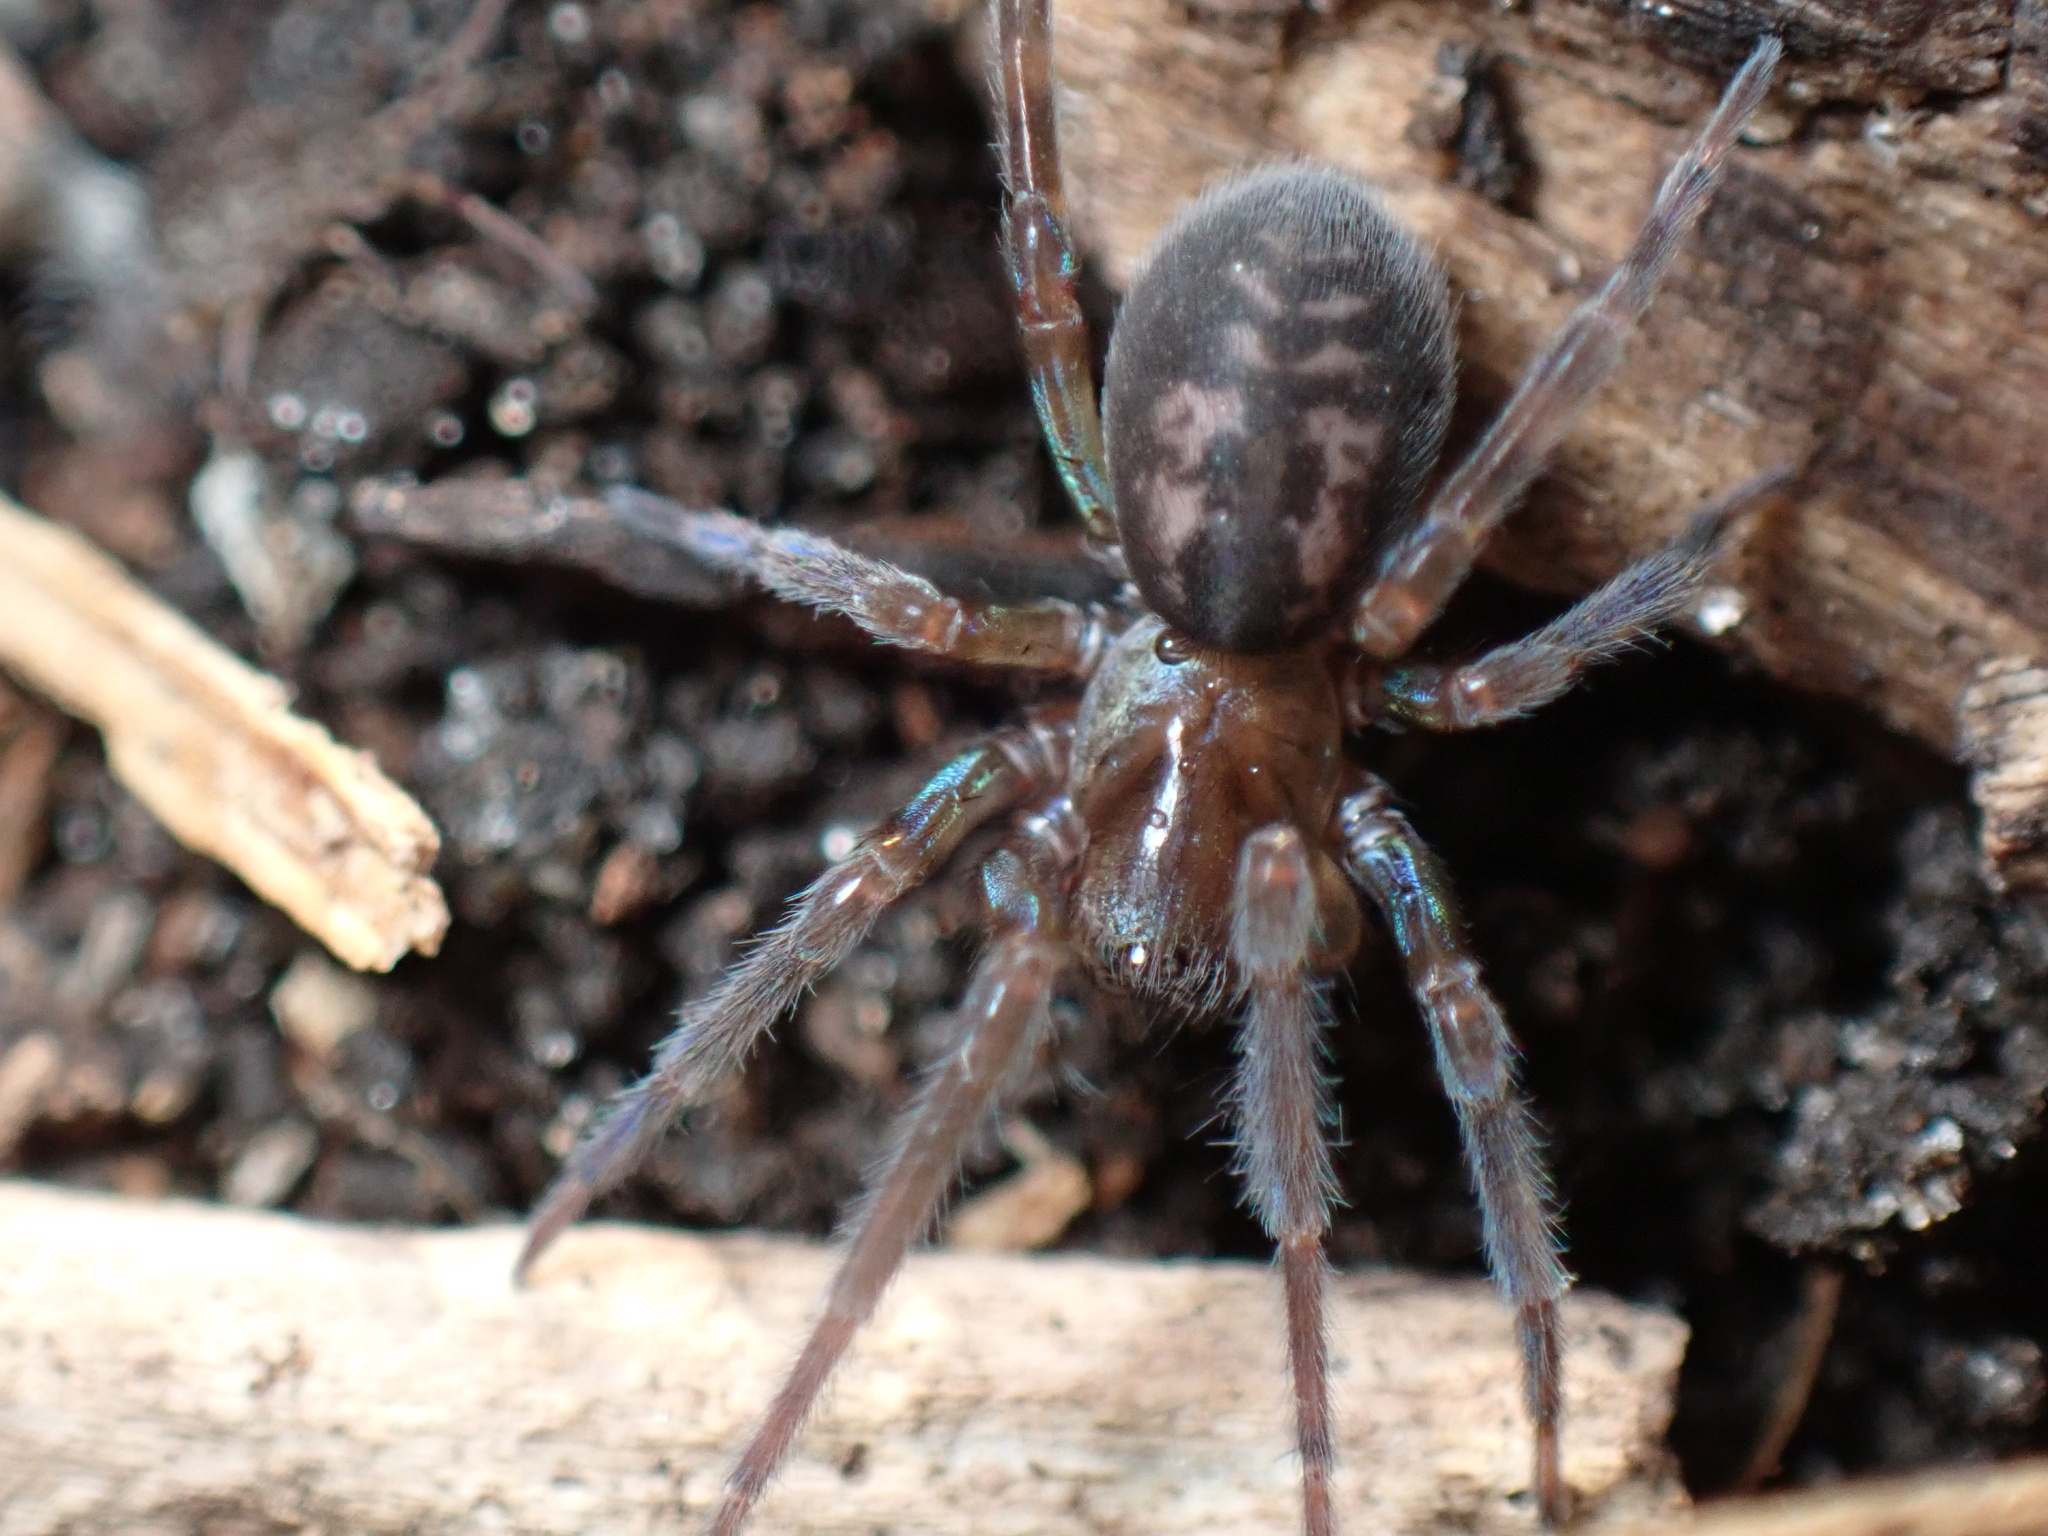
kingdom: Animalia
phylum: Arthropoda
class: Arachnida
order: Araneae
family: Amaurobiidae
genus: Amaurobius
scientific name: Amaurobius ferox
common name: Black laceweaver
